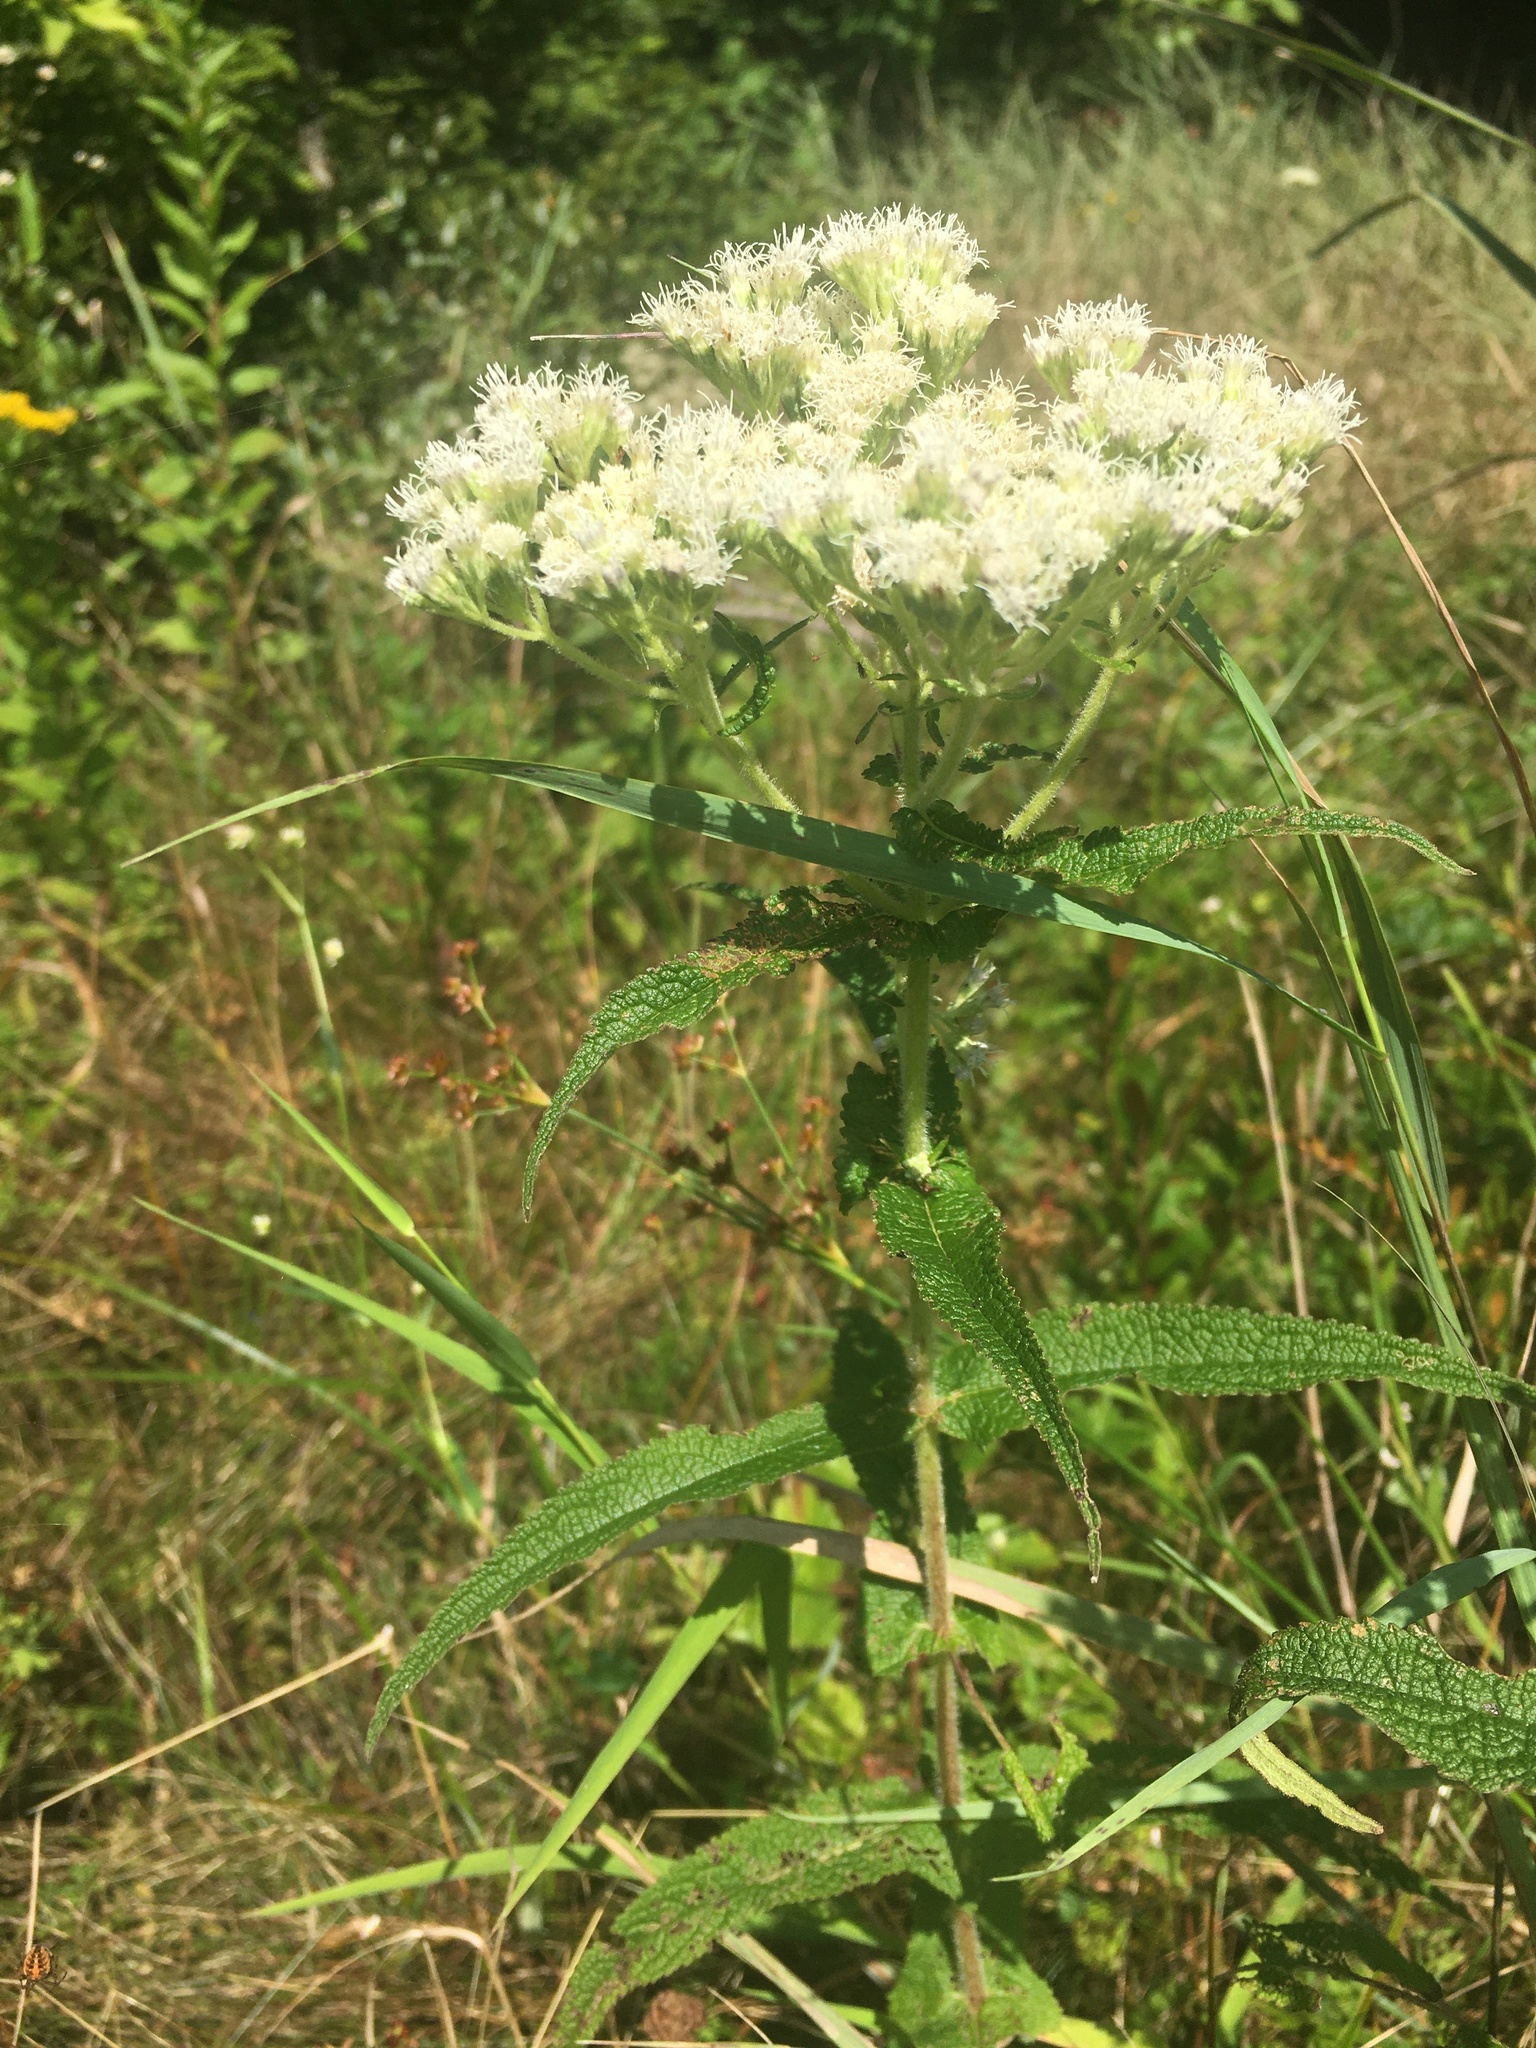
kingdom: Plantae
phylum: Tracheophyta
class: Magnoliopsida
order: Asterales
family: Asteraceae
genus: Eupatorium
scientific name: Eupatorium perfoliatum
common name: Boneset
